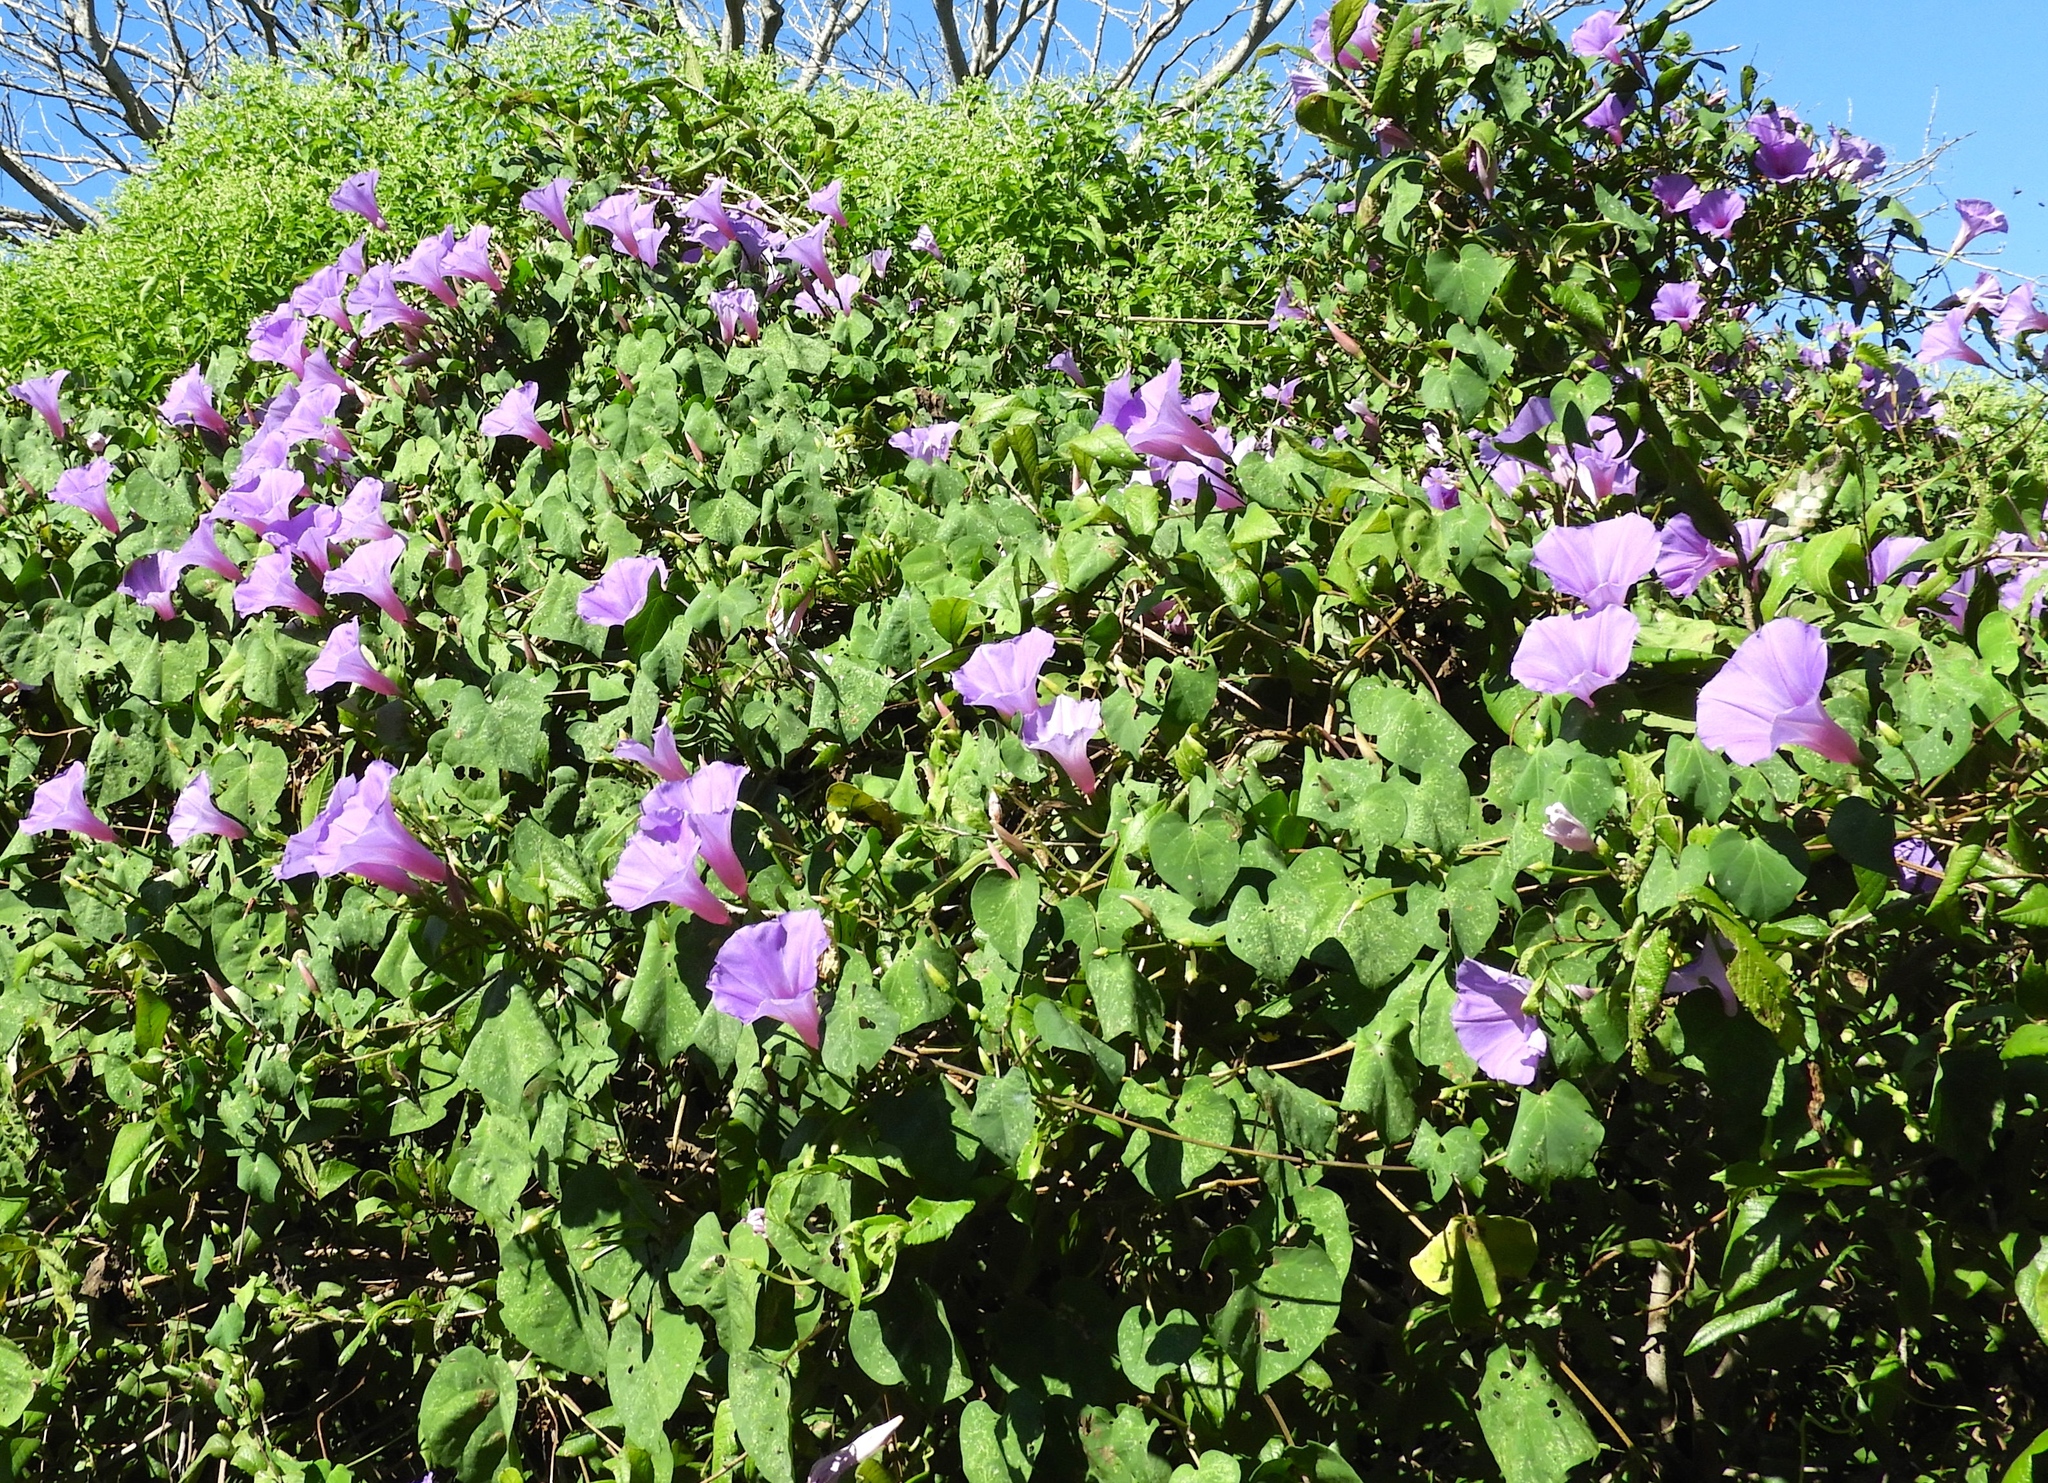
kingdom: Plantae
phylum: Tracheophyta
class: Magnoliopsida
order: Solanales
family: Convolvulaceae
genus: Ipomoea
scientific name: Ipomoea pedicellaris
